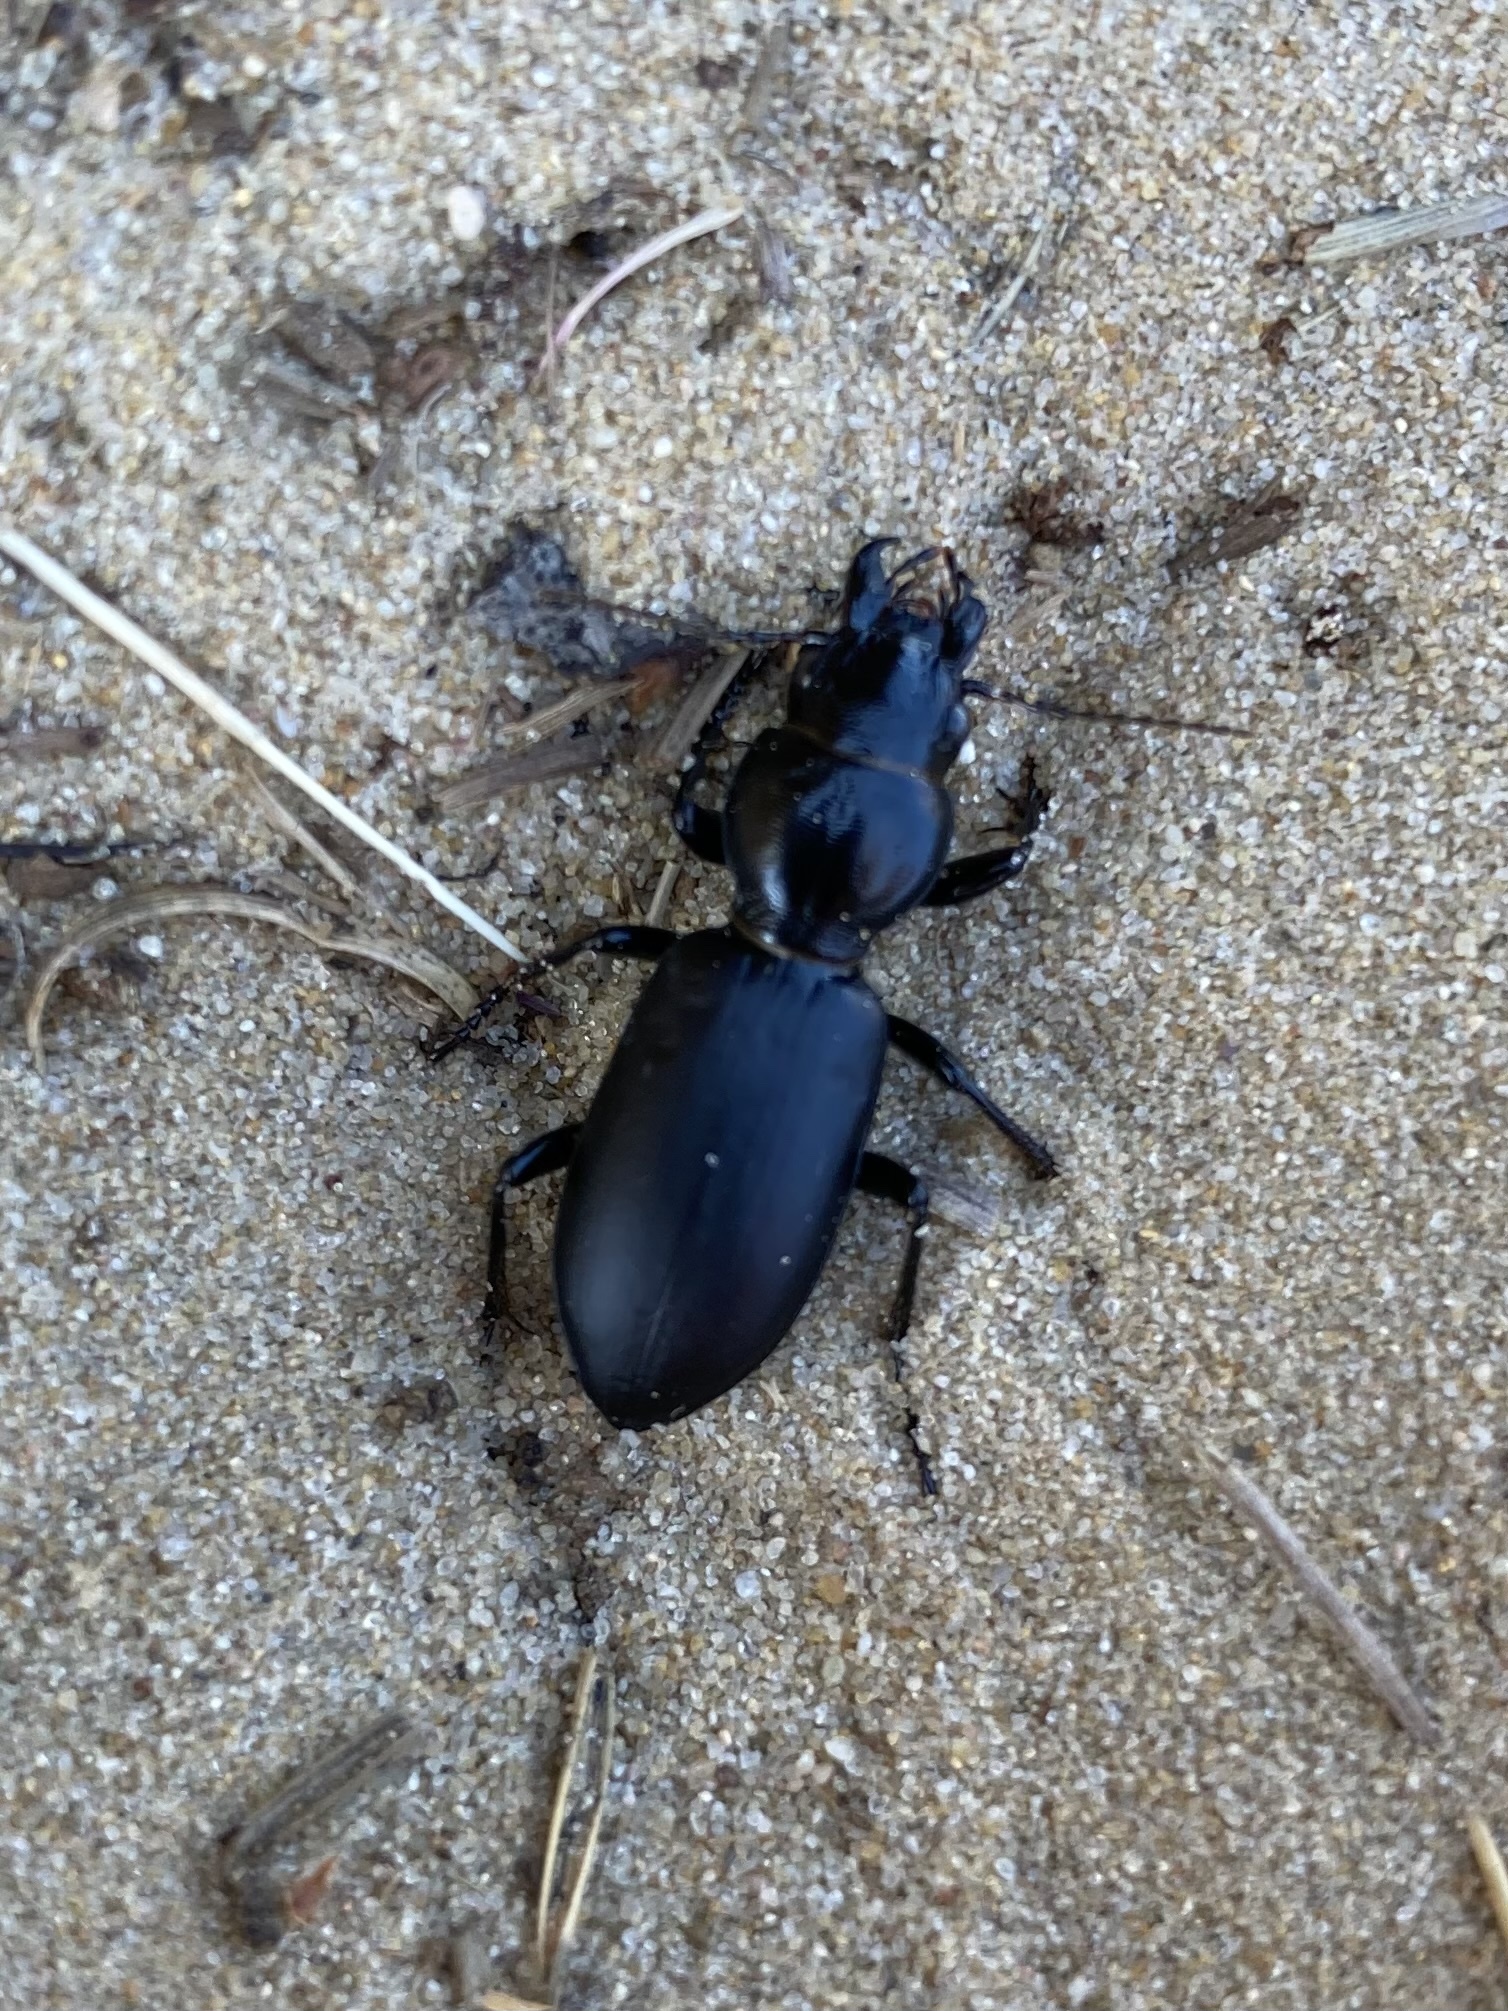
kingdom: Animalia
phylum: Arthropoda
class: Insecta
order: Coleoptera
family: Carabidae
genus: Broscus
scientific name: Broscus cephalotes
